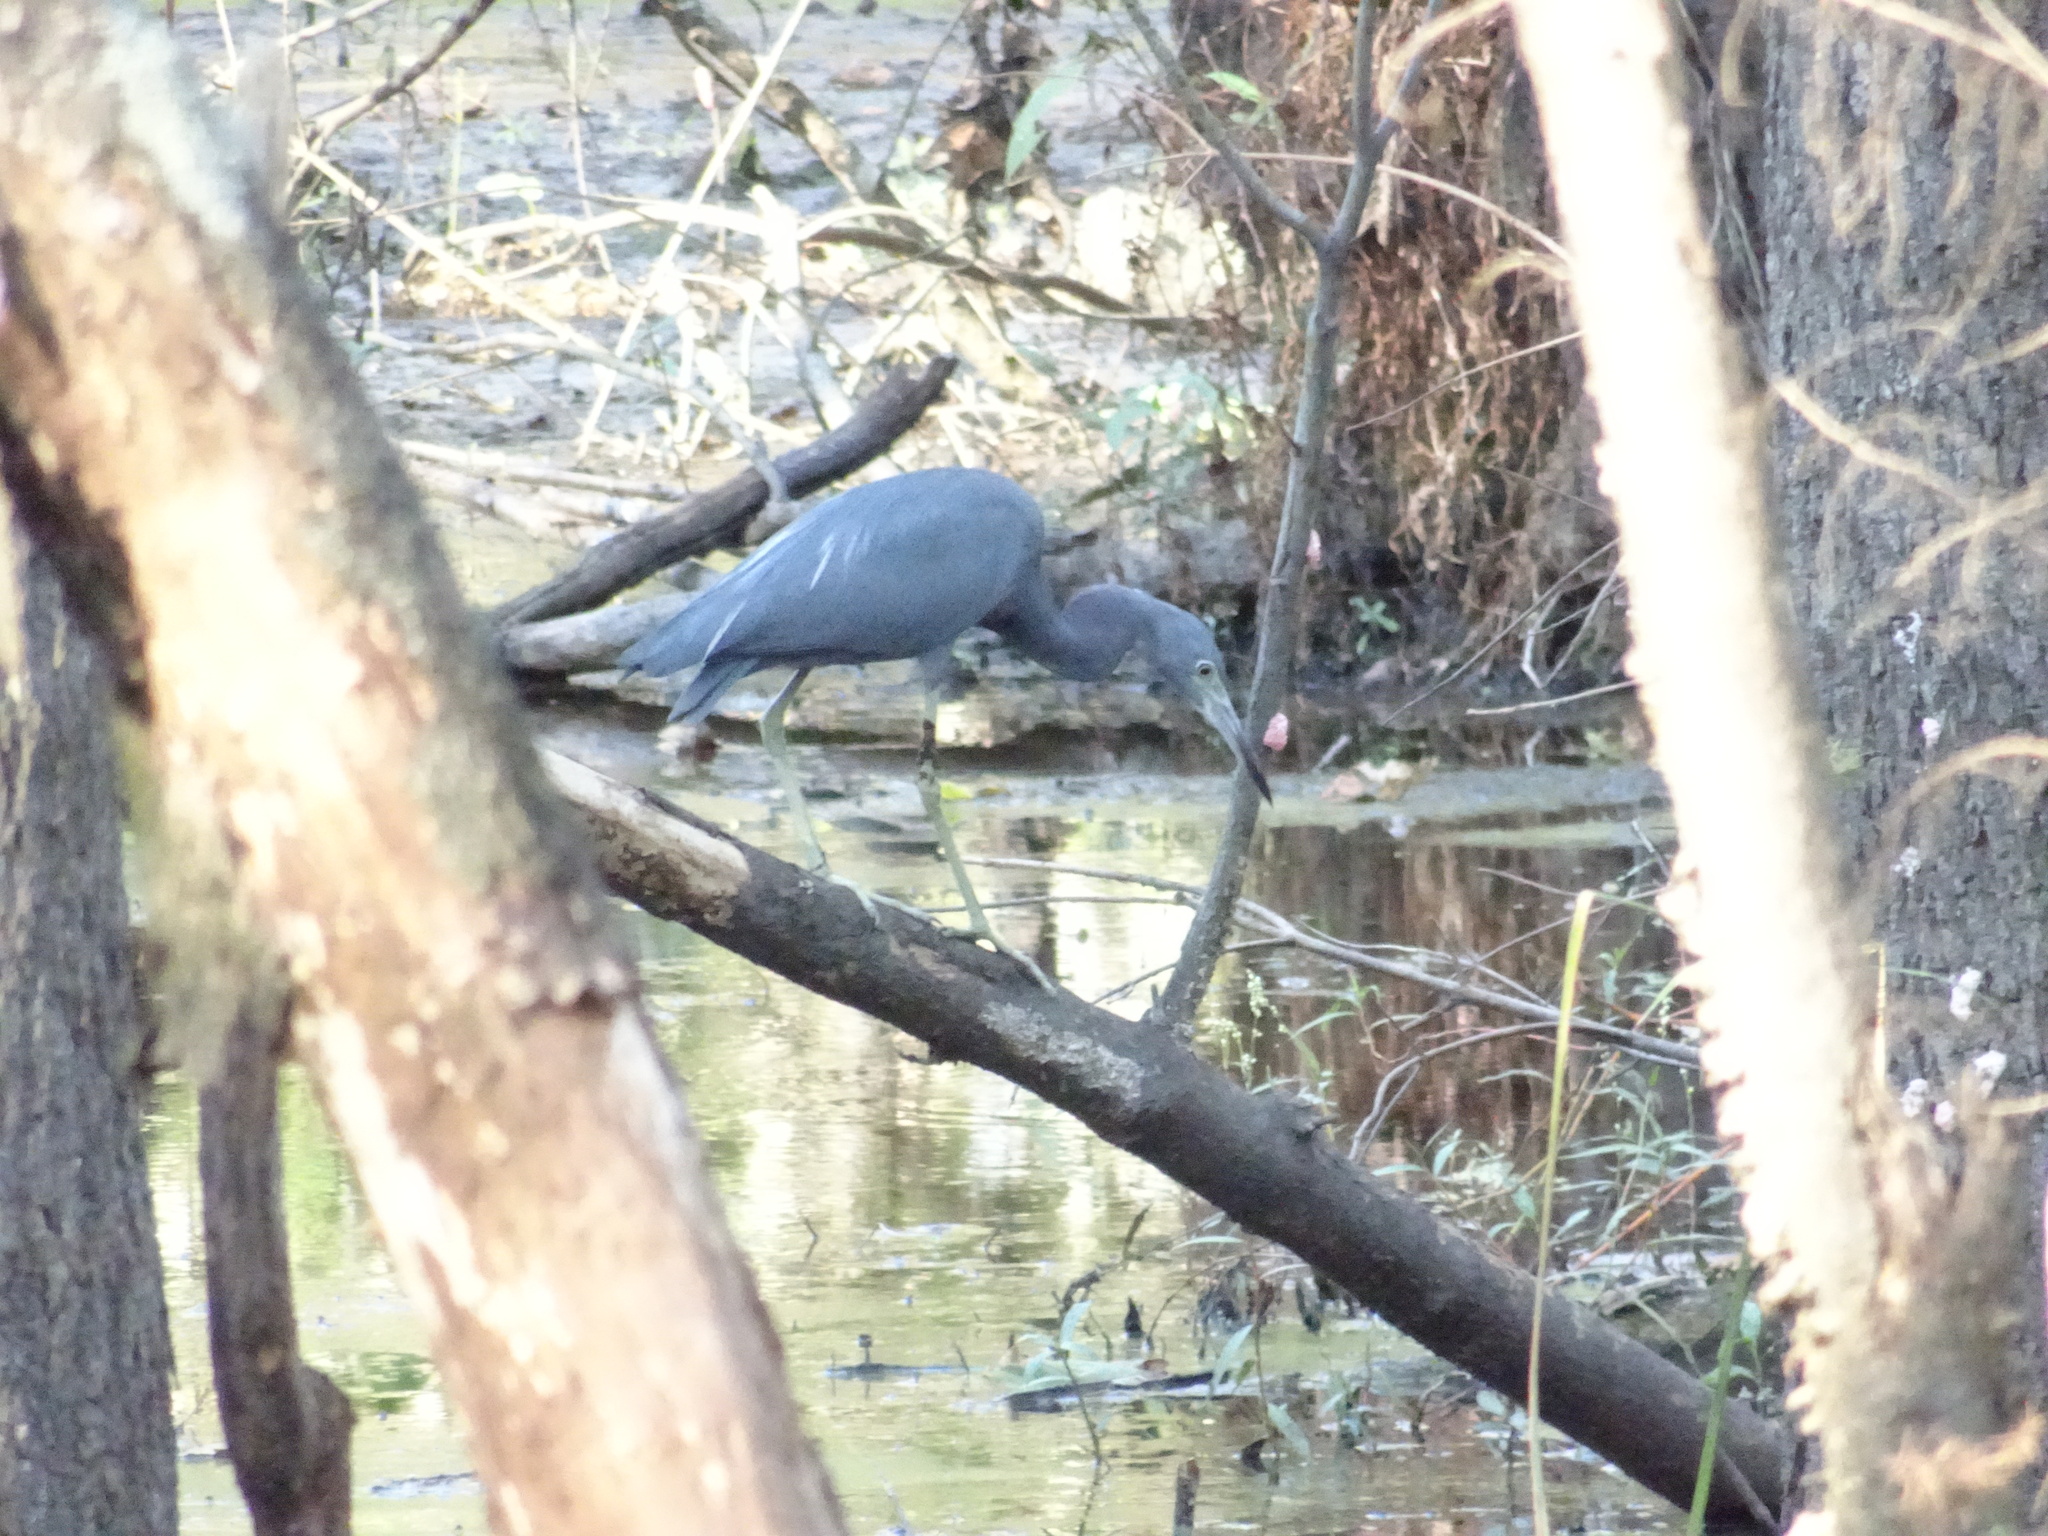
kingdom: Animalia
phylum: Chordata
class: Aves
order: Pelecaniformes
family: Ardeidae
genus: Egretta
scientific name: Egretta caerulea
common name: Little blue heron
